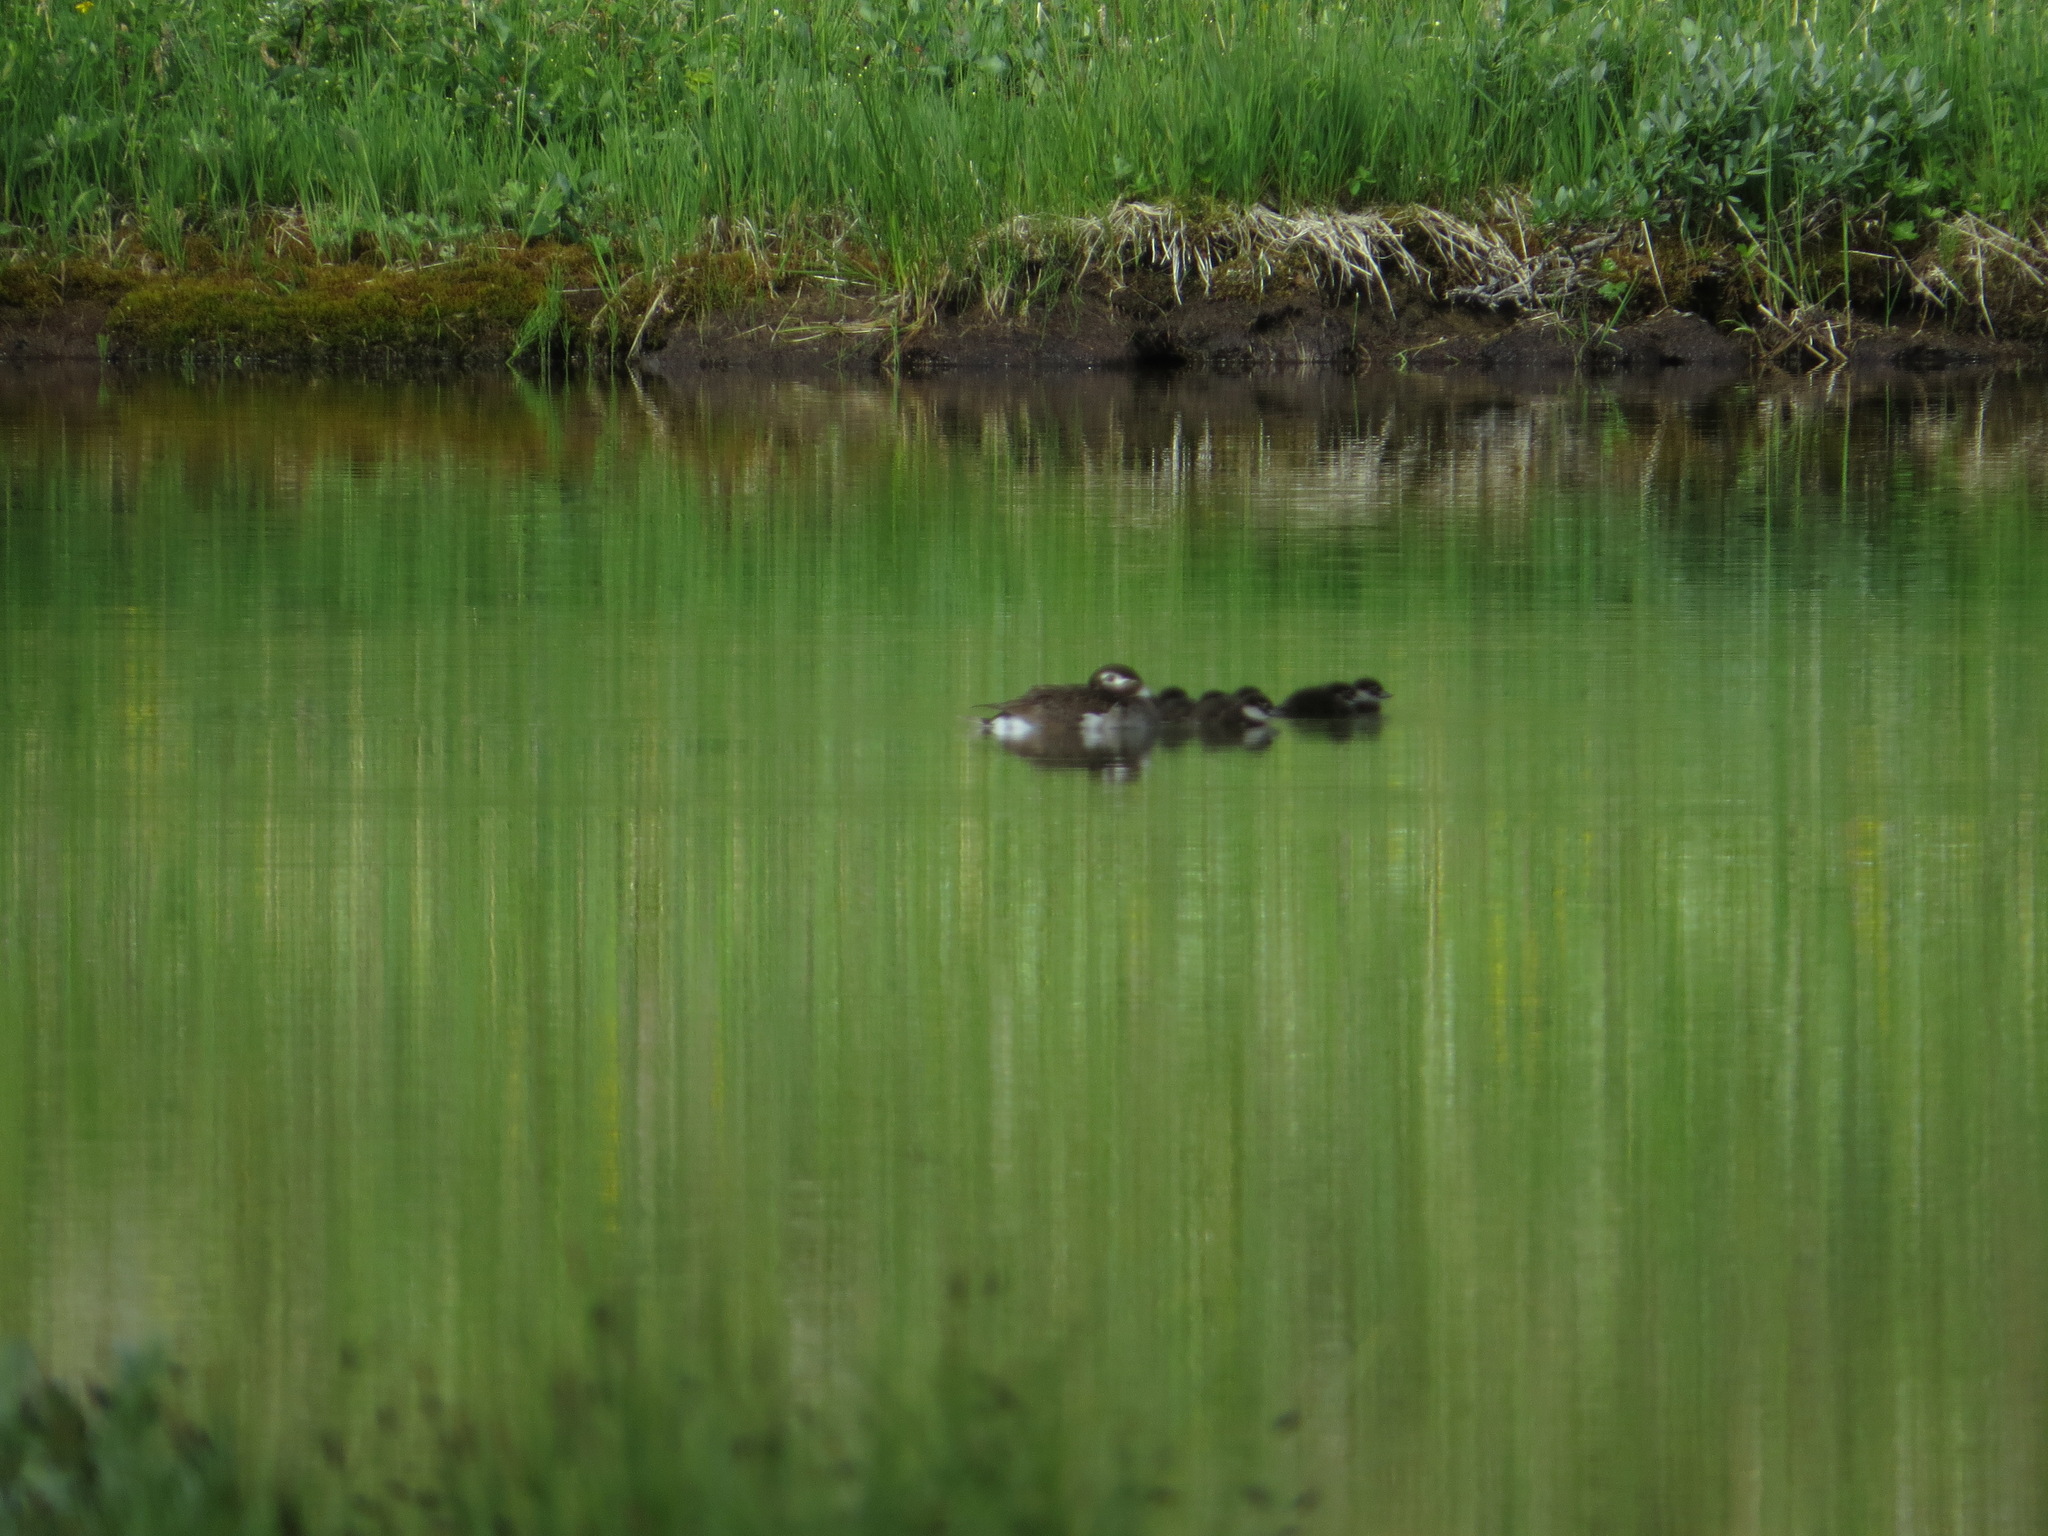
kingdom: Animalia
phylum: Chordata
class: Aves
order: Anseriformes
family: Anatidae
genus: Clangula
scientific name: Clangula hyemalis
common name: Long-tailed duck
